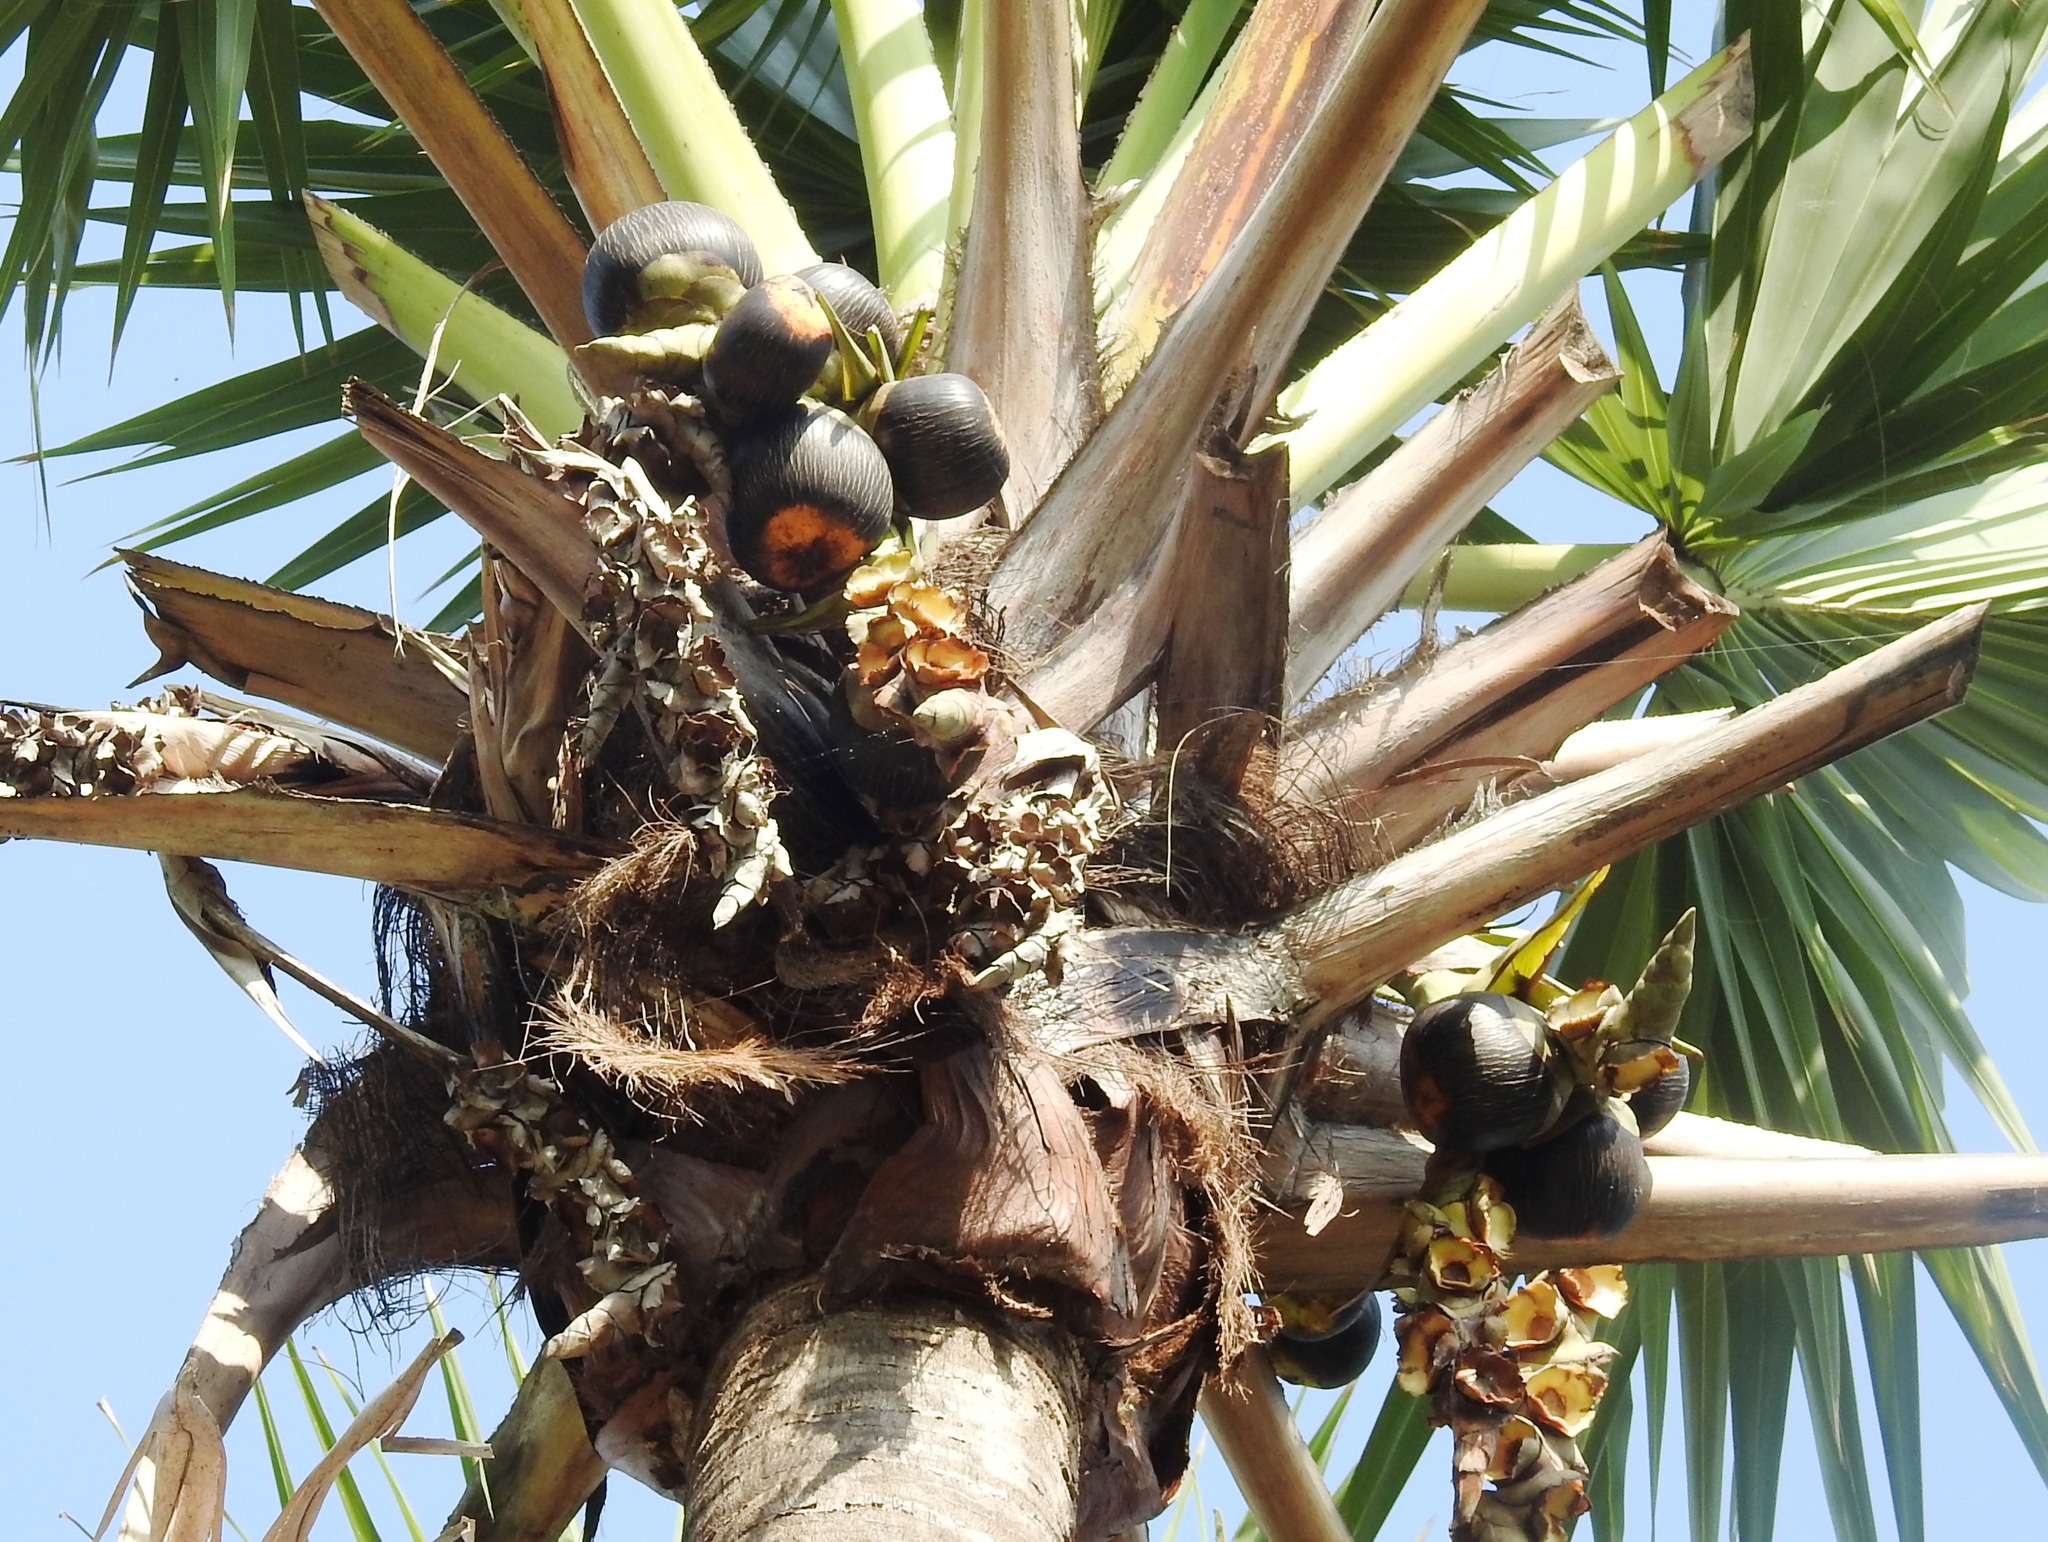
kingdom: Plantae
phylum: Tracheophyta
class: Liliopsida
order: Arecales
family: Arecaceae
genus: Borassus
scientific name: Borassus flabellifer
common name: Palmyra palm
